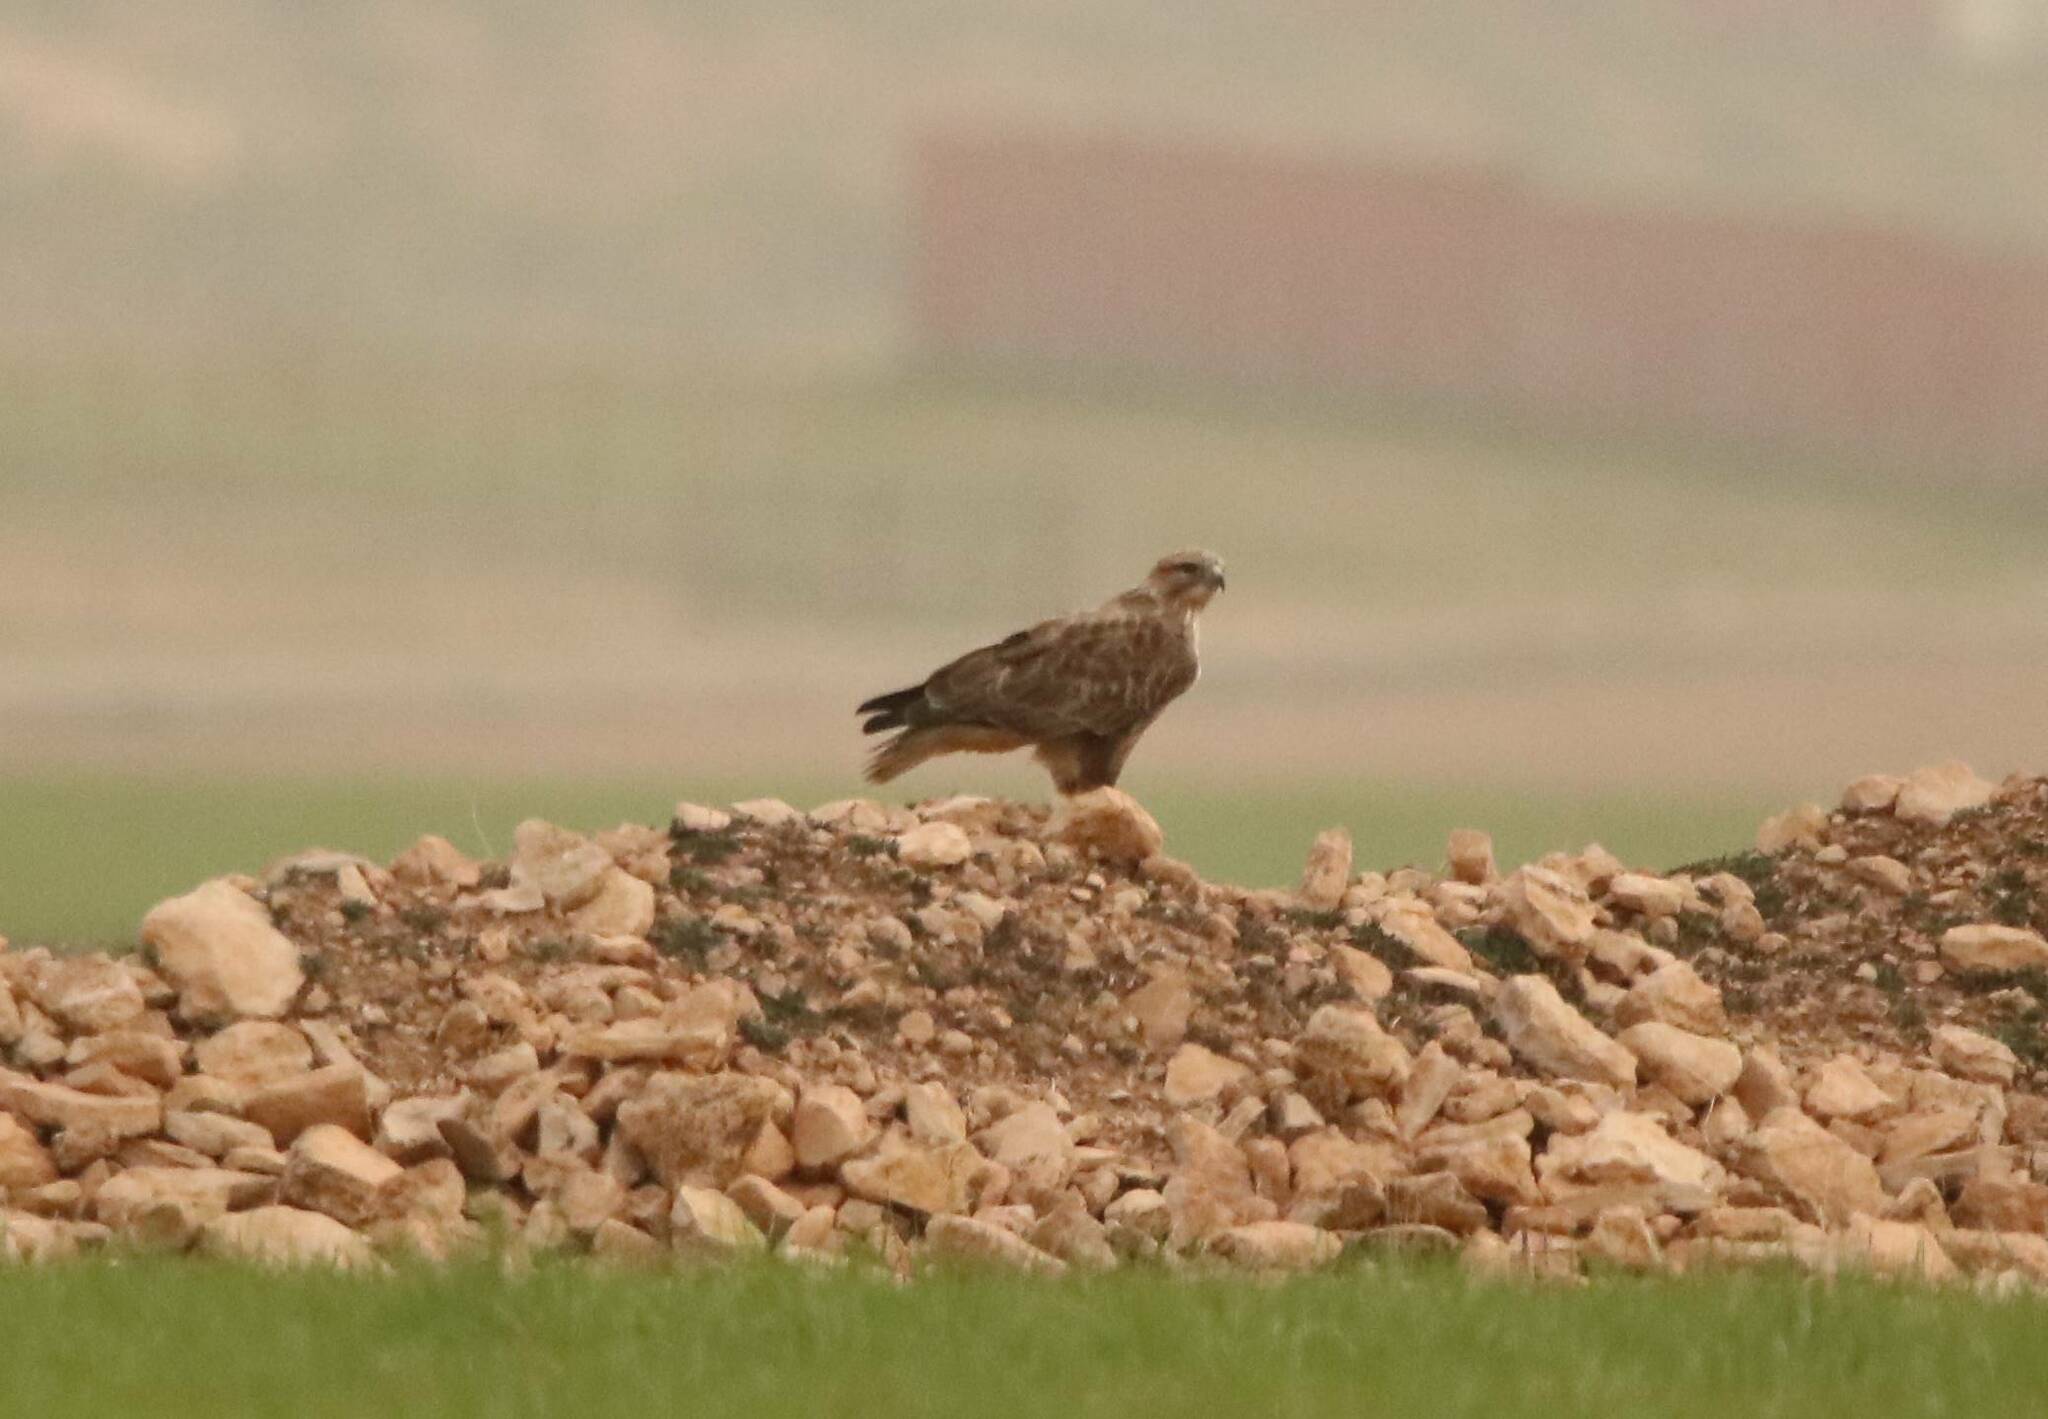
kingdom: Animalia
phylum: Chordata
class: Aves
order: Accipitriformes
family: Accipitridae
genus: Buteo
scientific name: Buteo rufinus
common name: Long-legged buzzard
